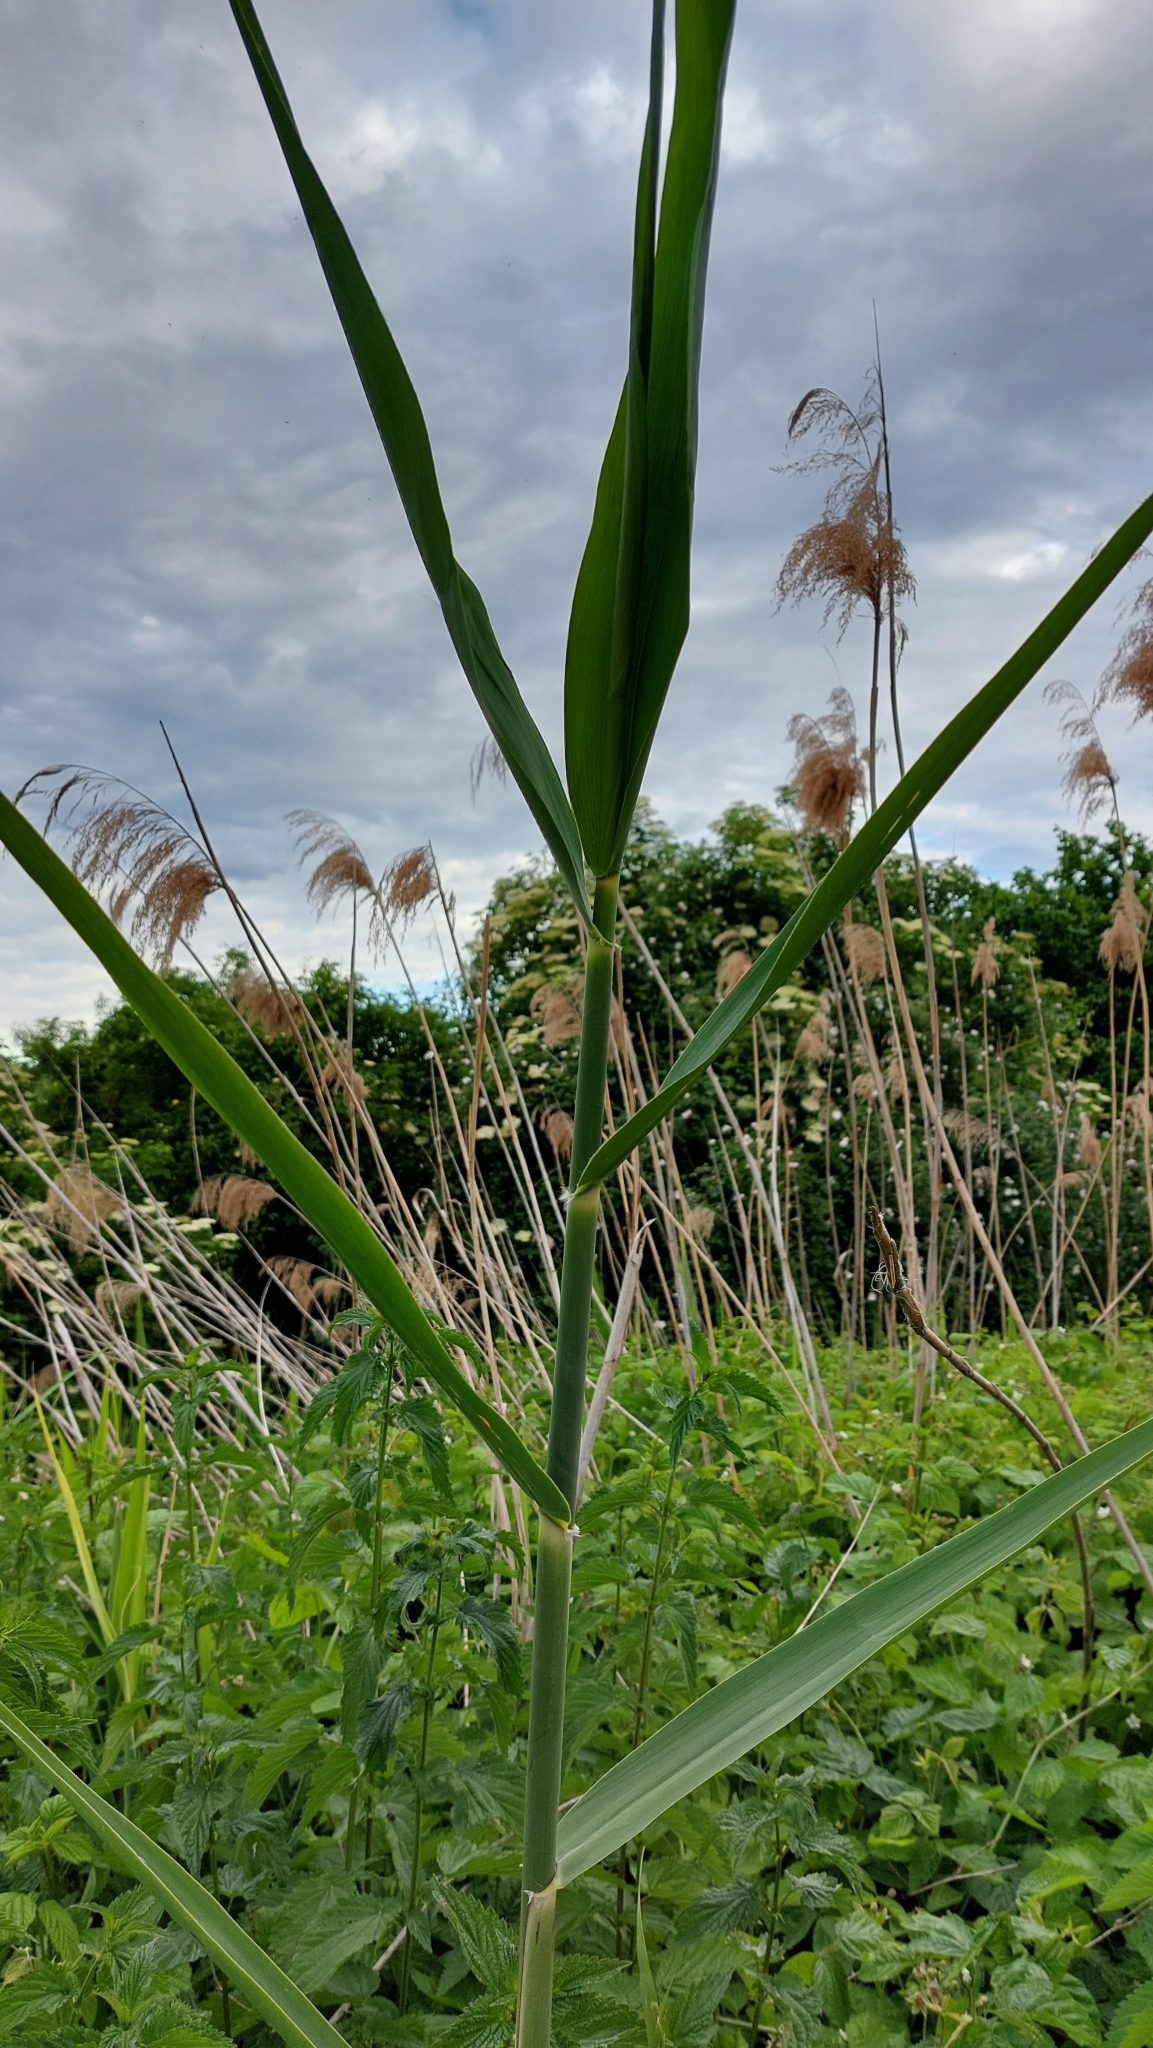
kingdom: Plantae
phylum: Tracheophyta
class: Liliopsida
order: Poales
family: Poaceae
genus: Phragmites
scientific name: Phragmites australis
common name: Common reed
